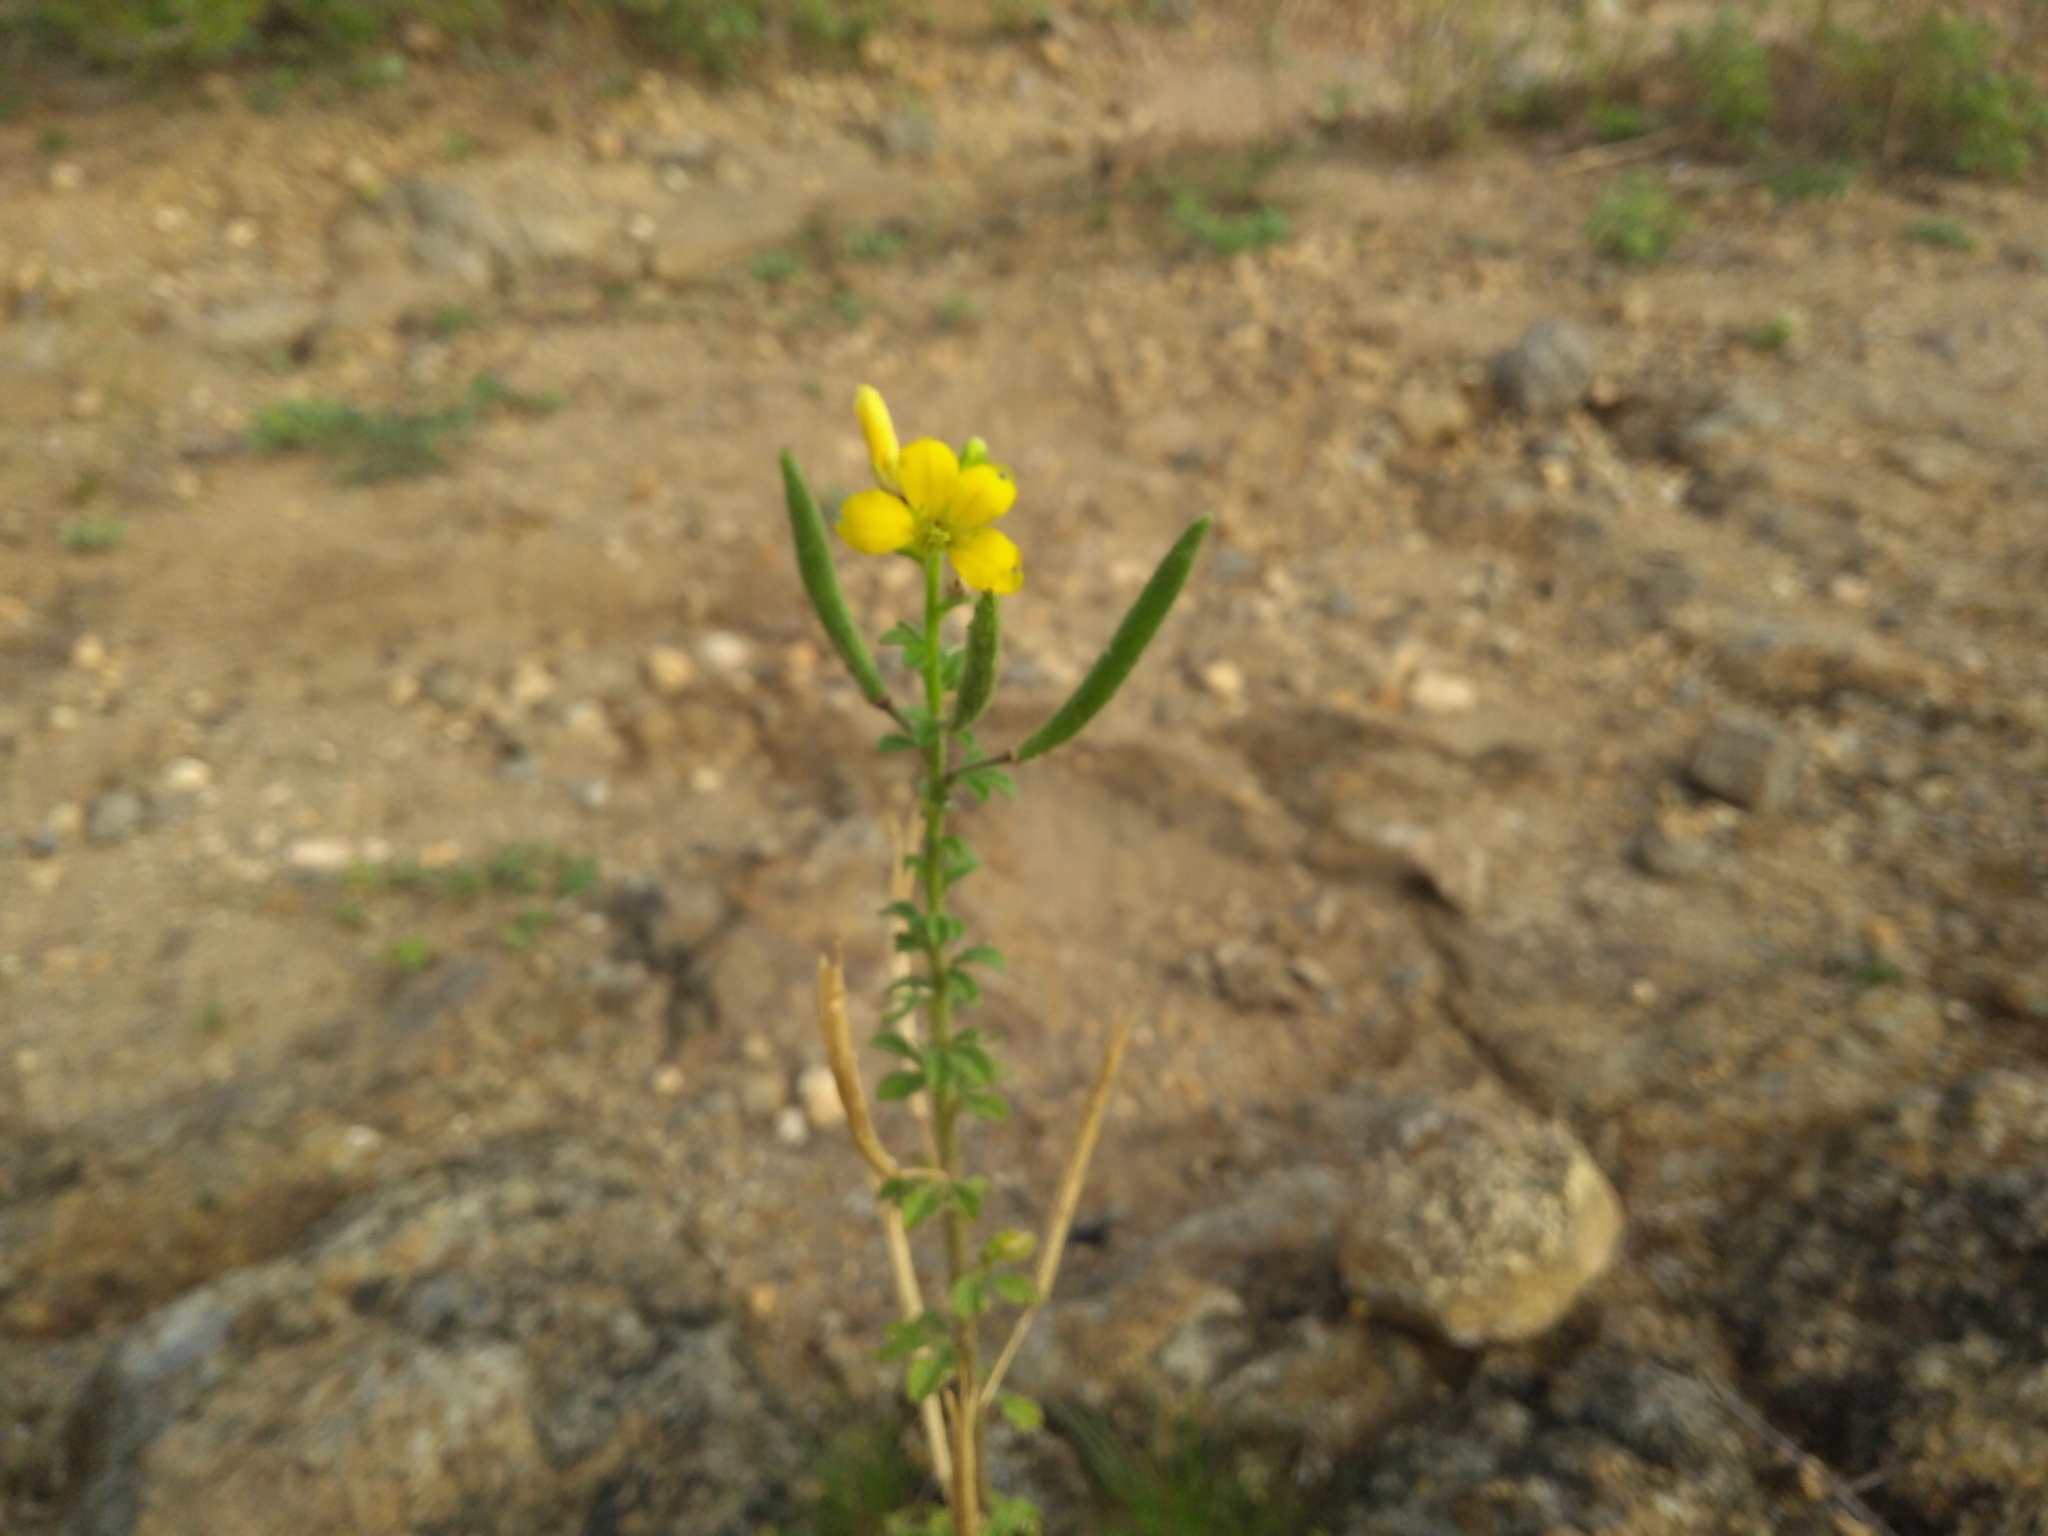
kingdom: Plantae
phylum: Tracheophyta
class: Magnoliopsida
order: Brassicales
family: Cleomaceae
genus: Arivela
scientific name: Arivela viscosa
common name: Asian spiderflower
